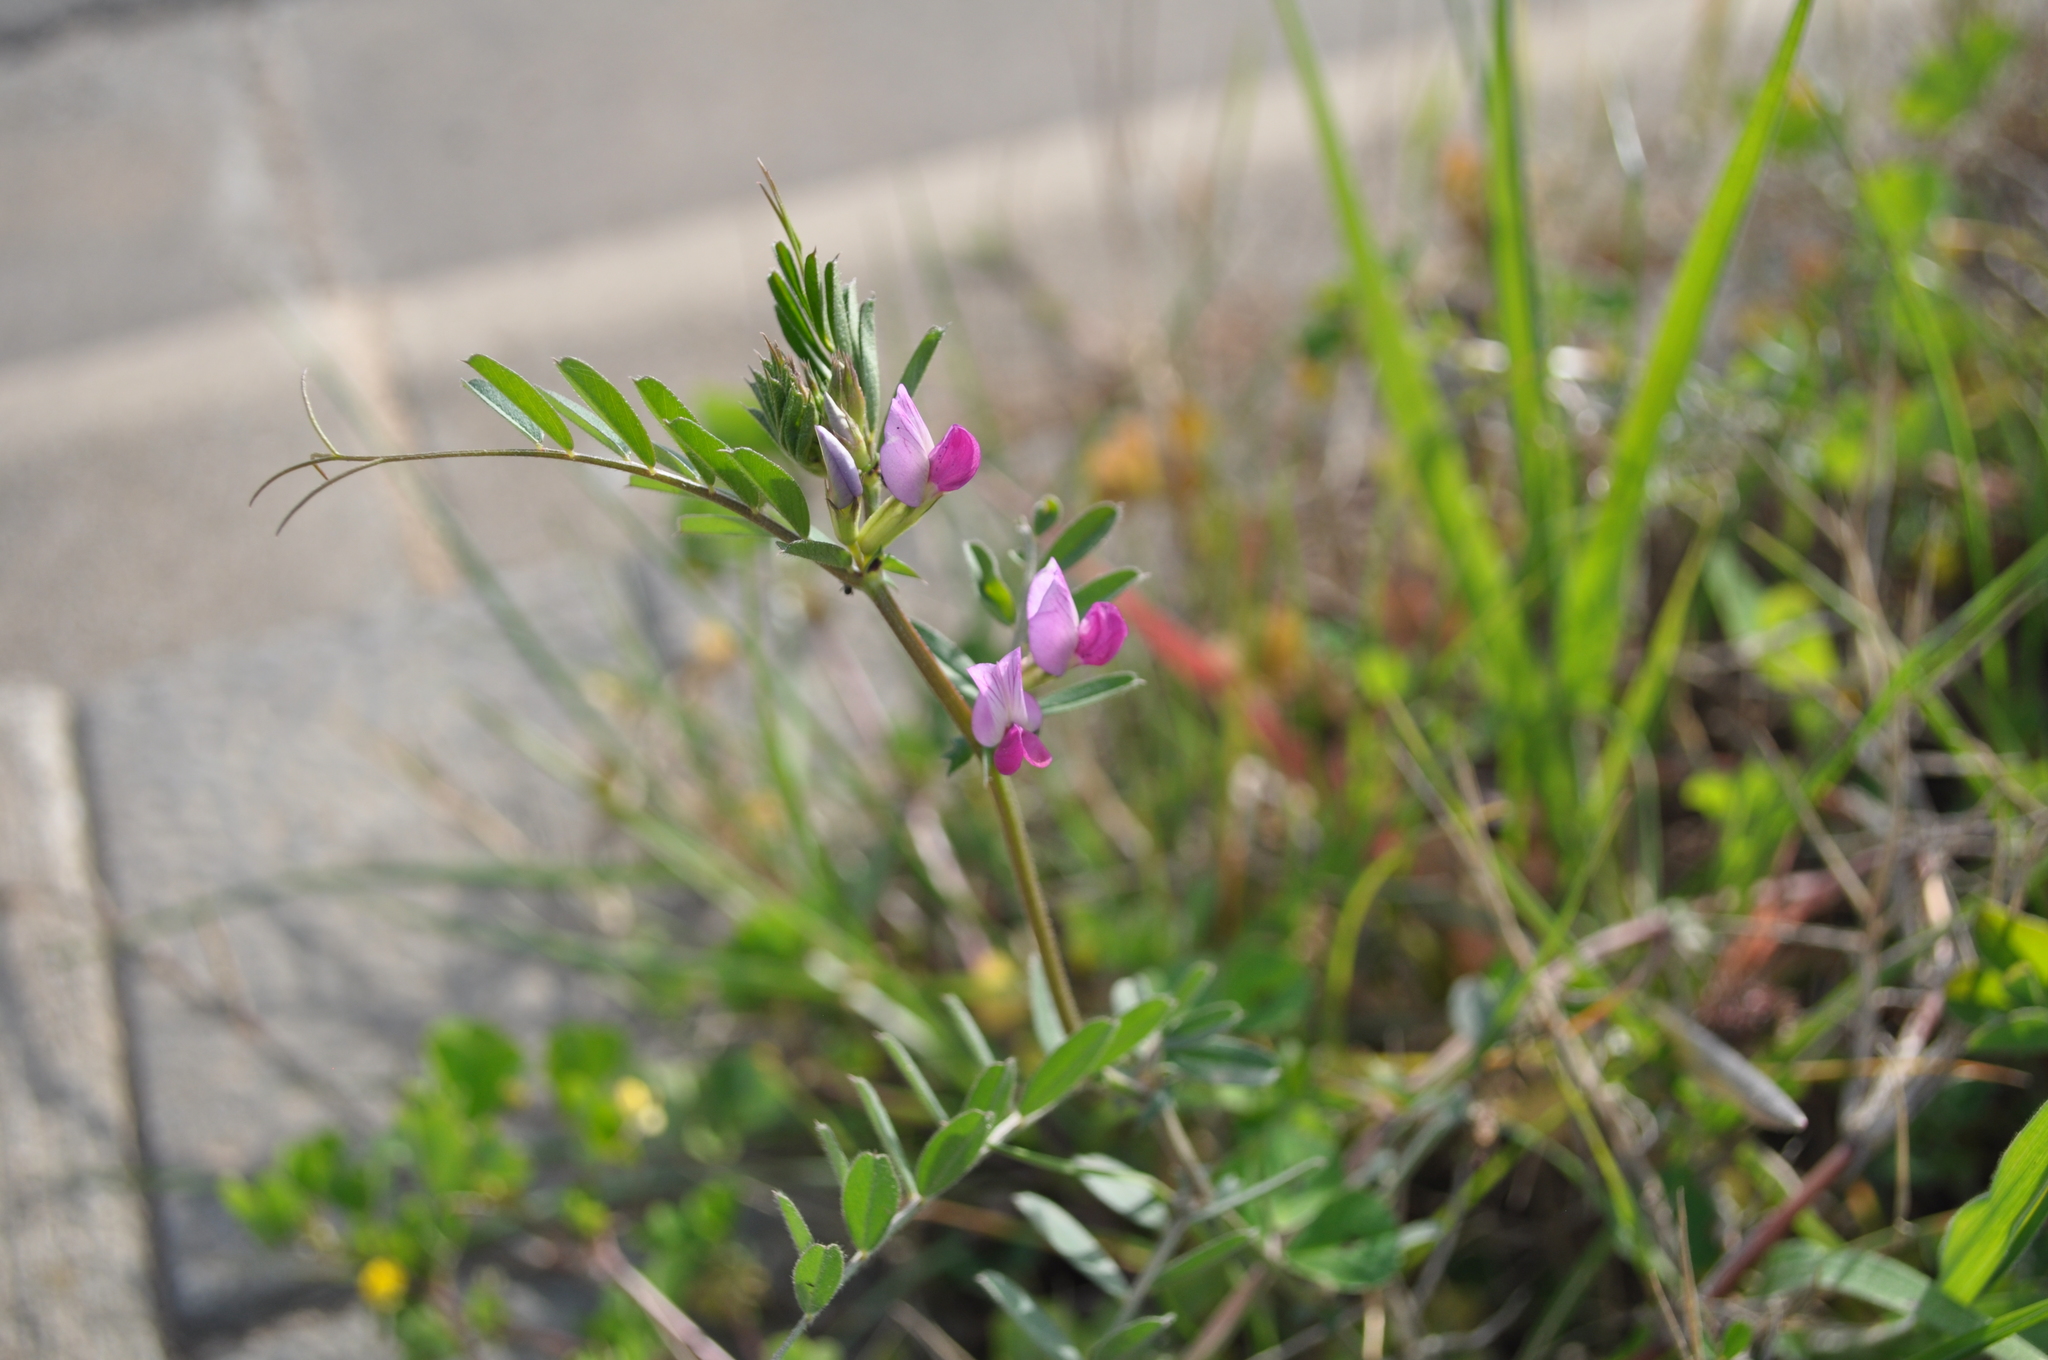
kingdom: Plantae
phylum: Tracheophyta
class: Magnoliopsida
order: Fabales
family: Fabaceae
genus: Vicia
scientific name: Vicia sativa
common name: Garden vetch
